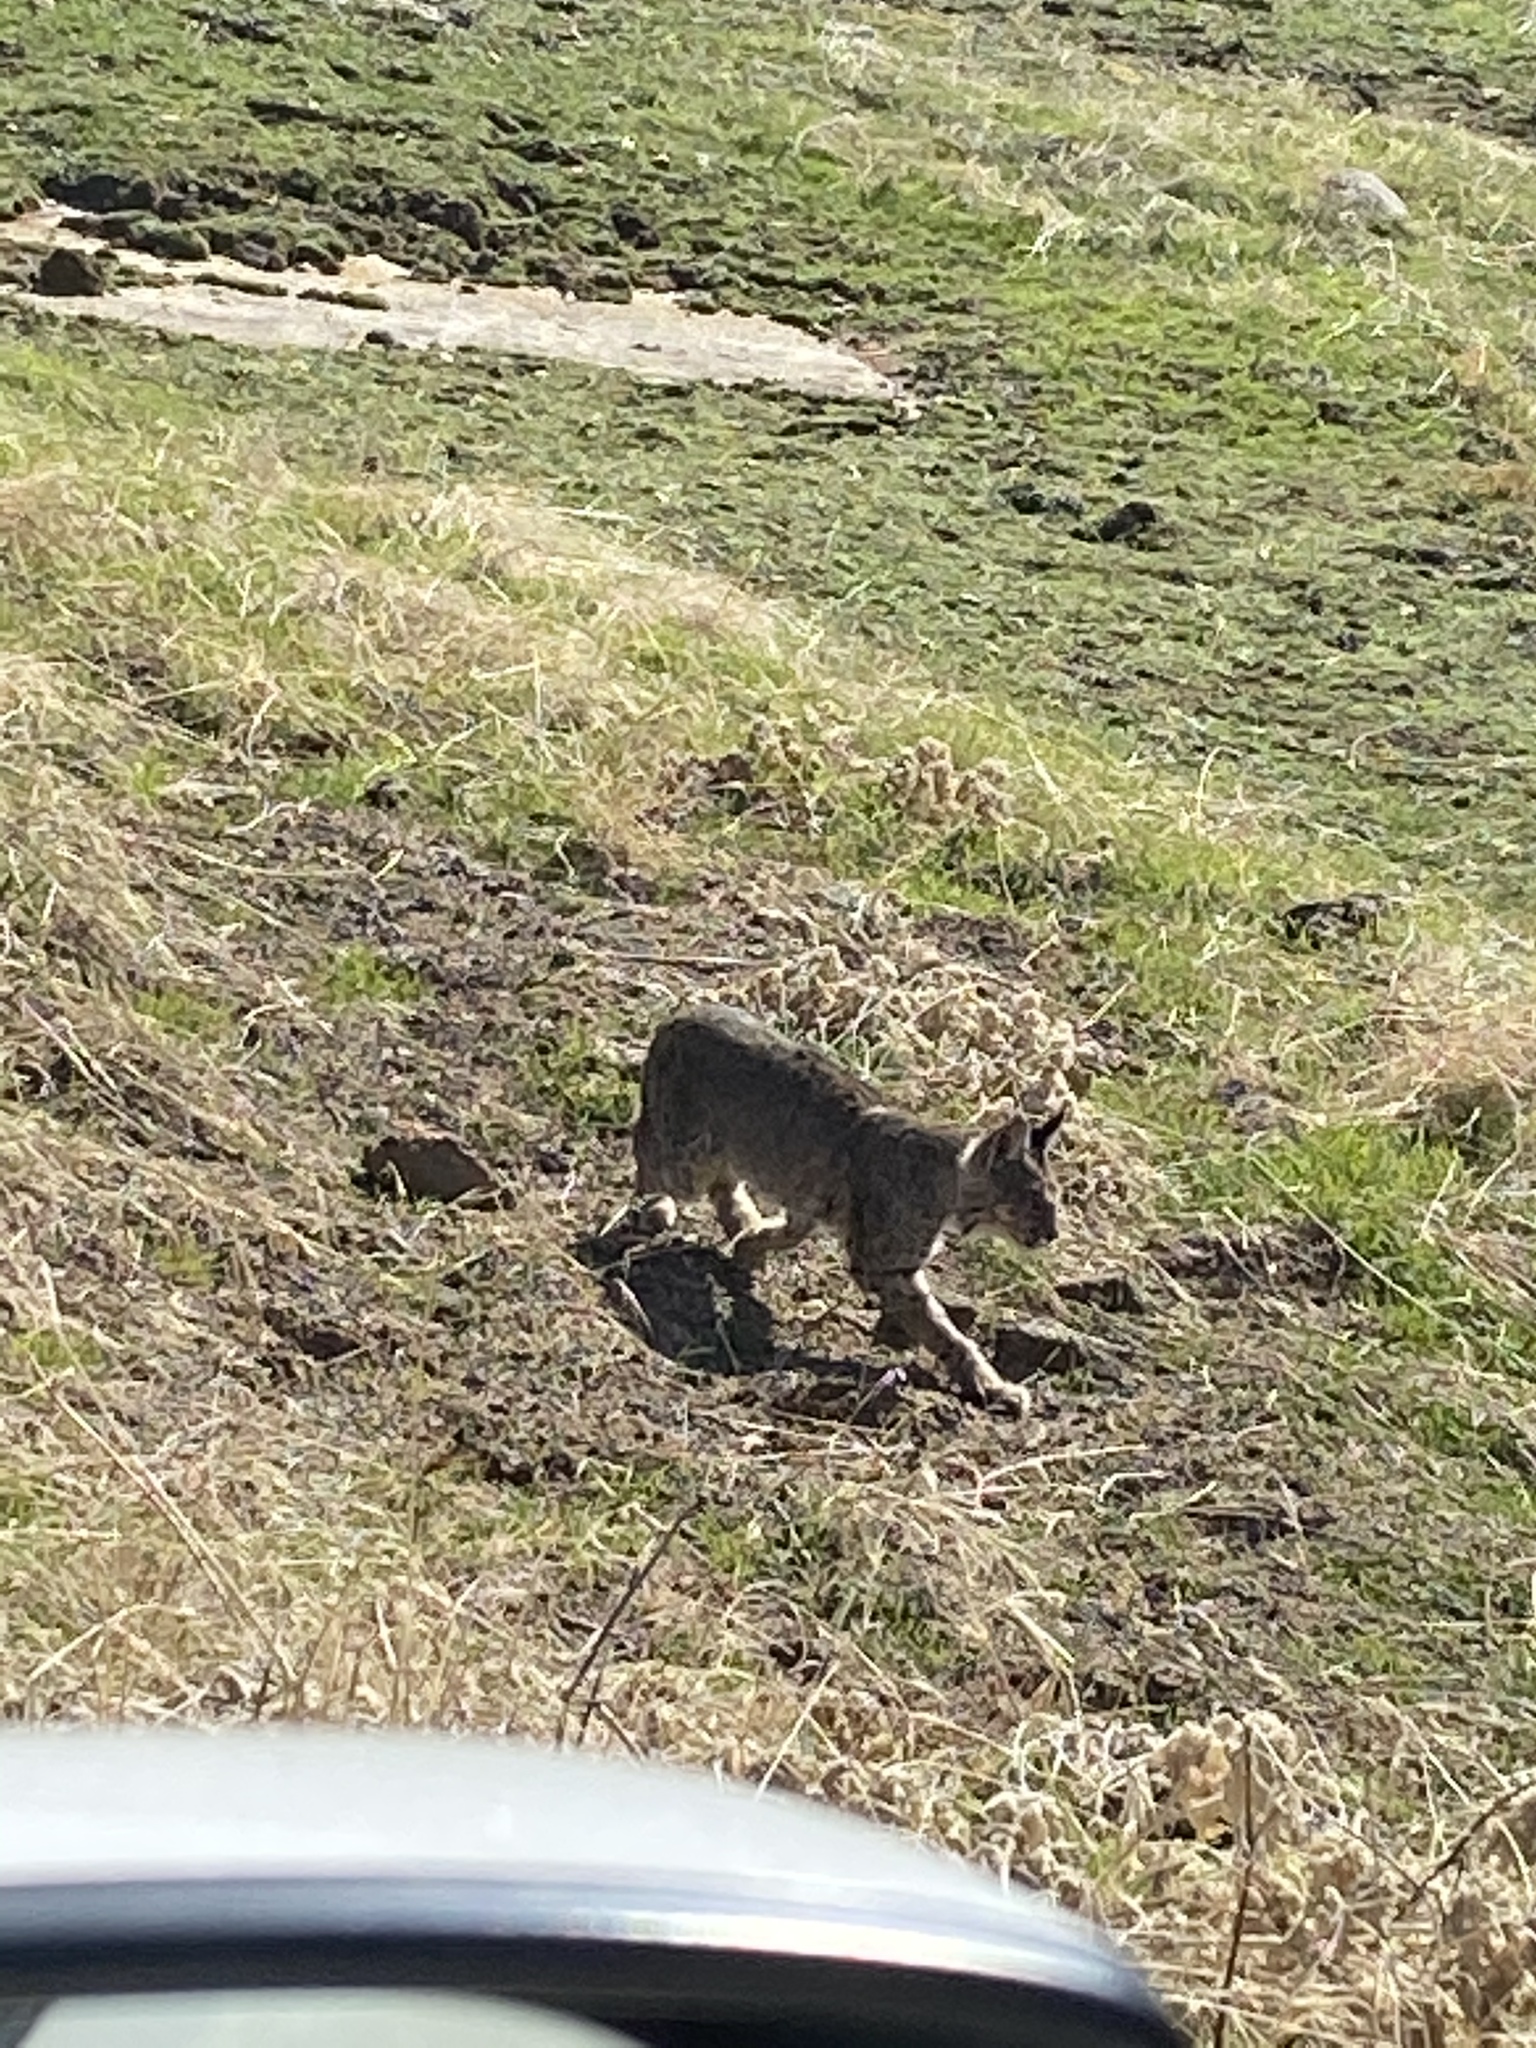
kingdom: Animalia
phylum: Chordata
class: Mammalia
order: Carnivora
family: Felidae
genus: Lynx
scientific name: Lynx rufus
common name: Bobcat
